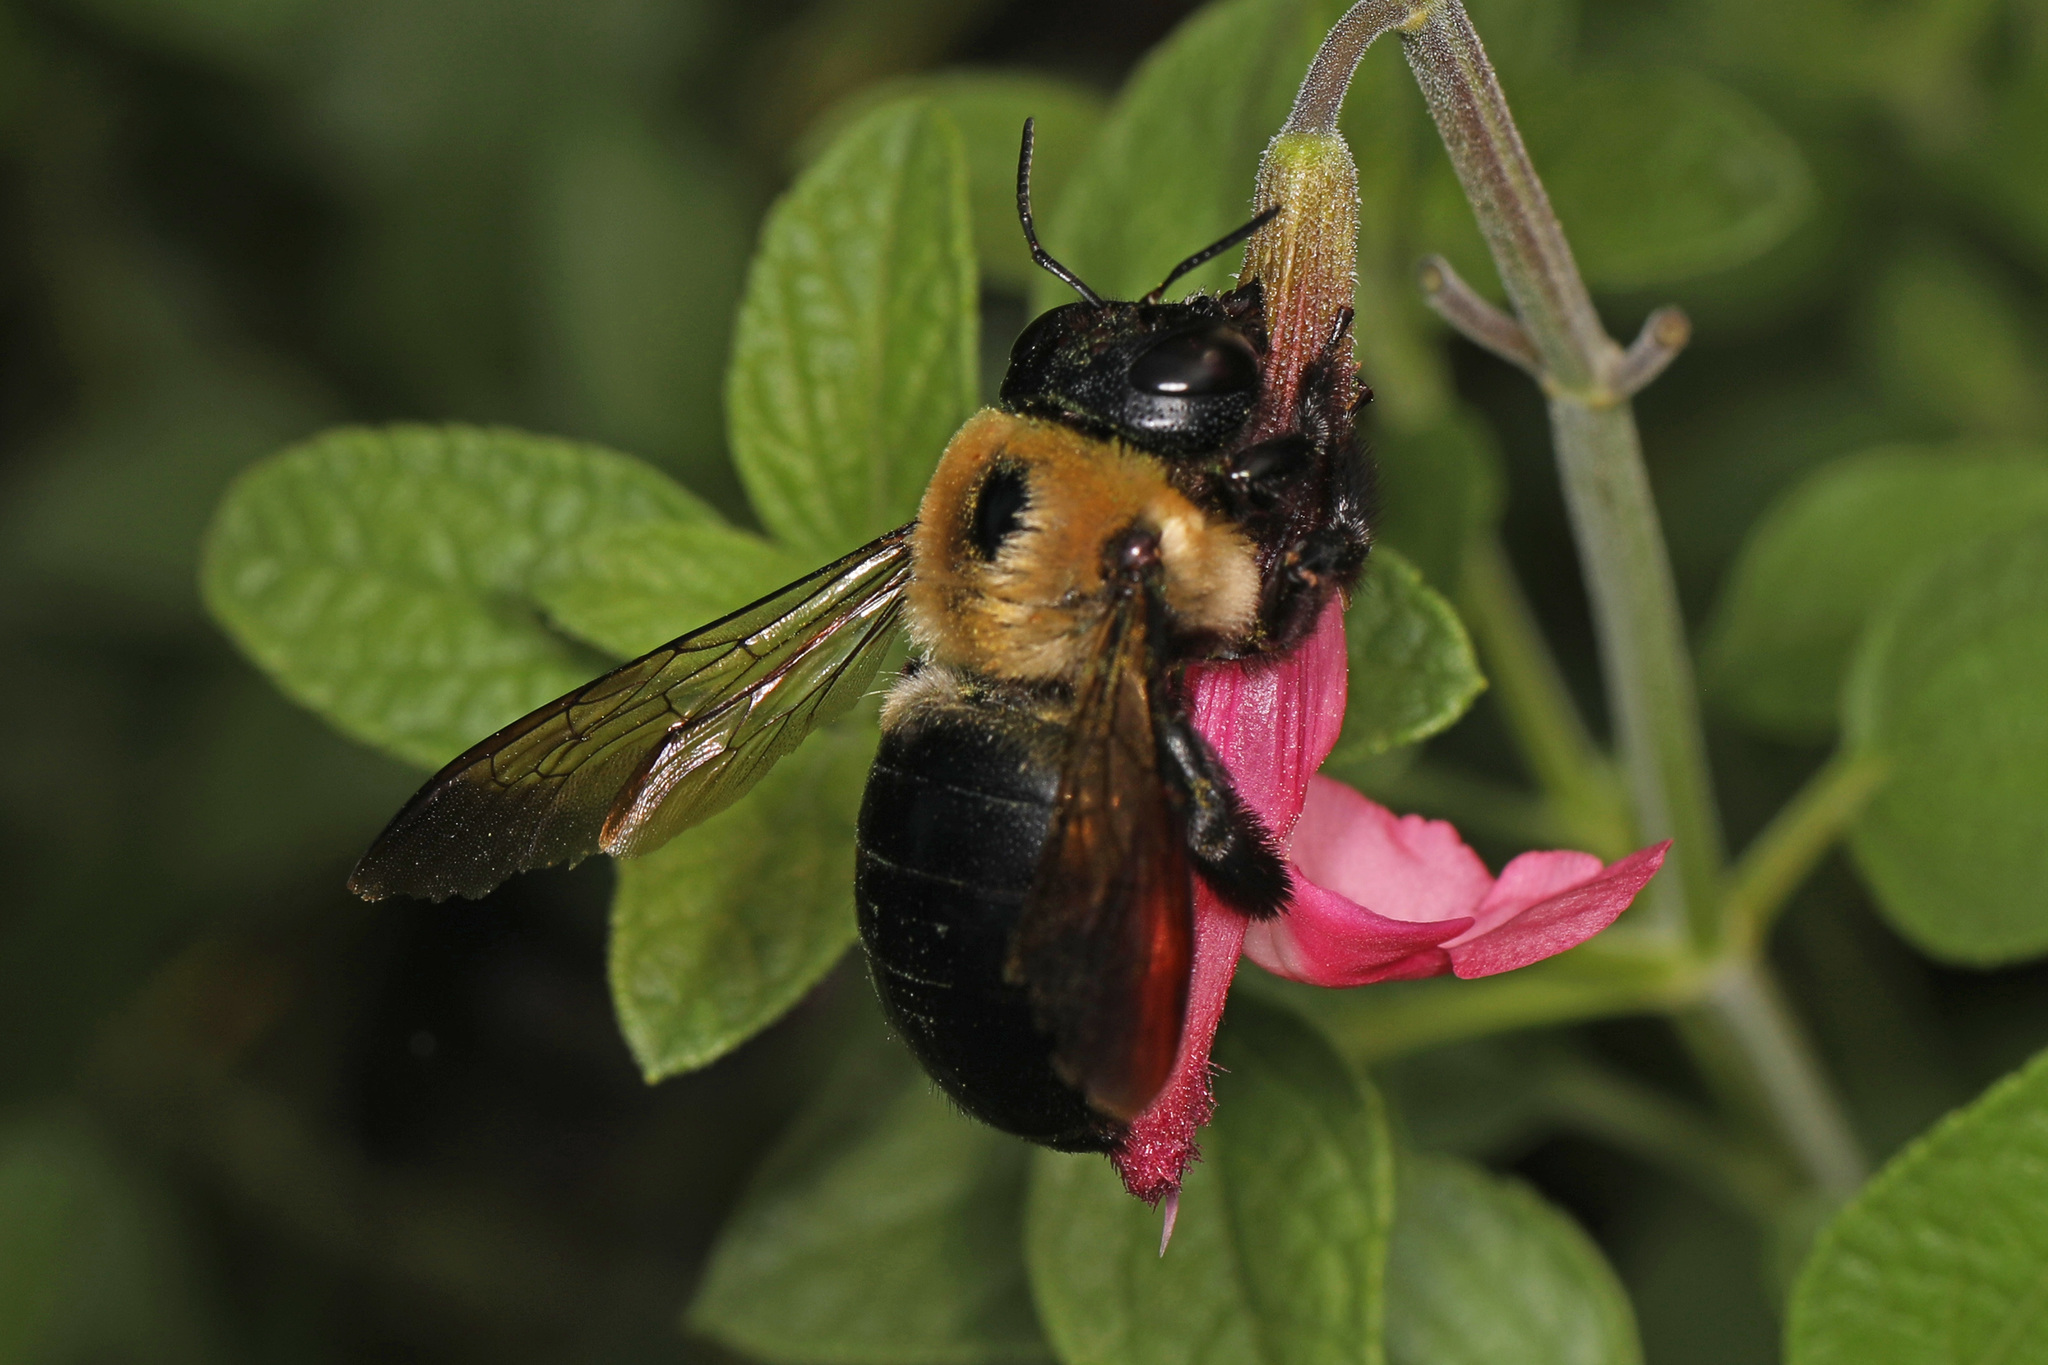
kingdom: Animalia
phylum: Arthropoda
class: Insecta
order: Hymenoptera
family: Apidae
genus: Xylocopa
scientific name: Xylocopa virginica
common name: Carpenter bee
